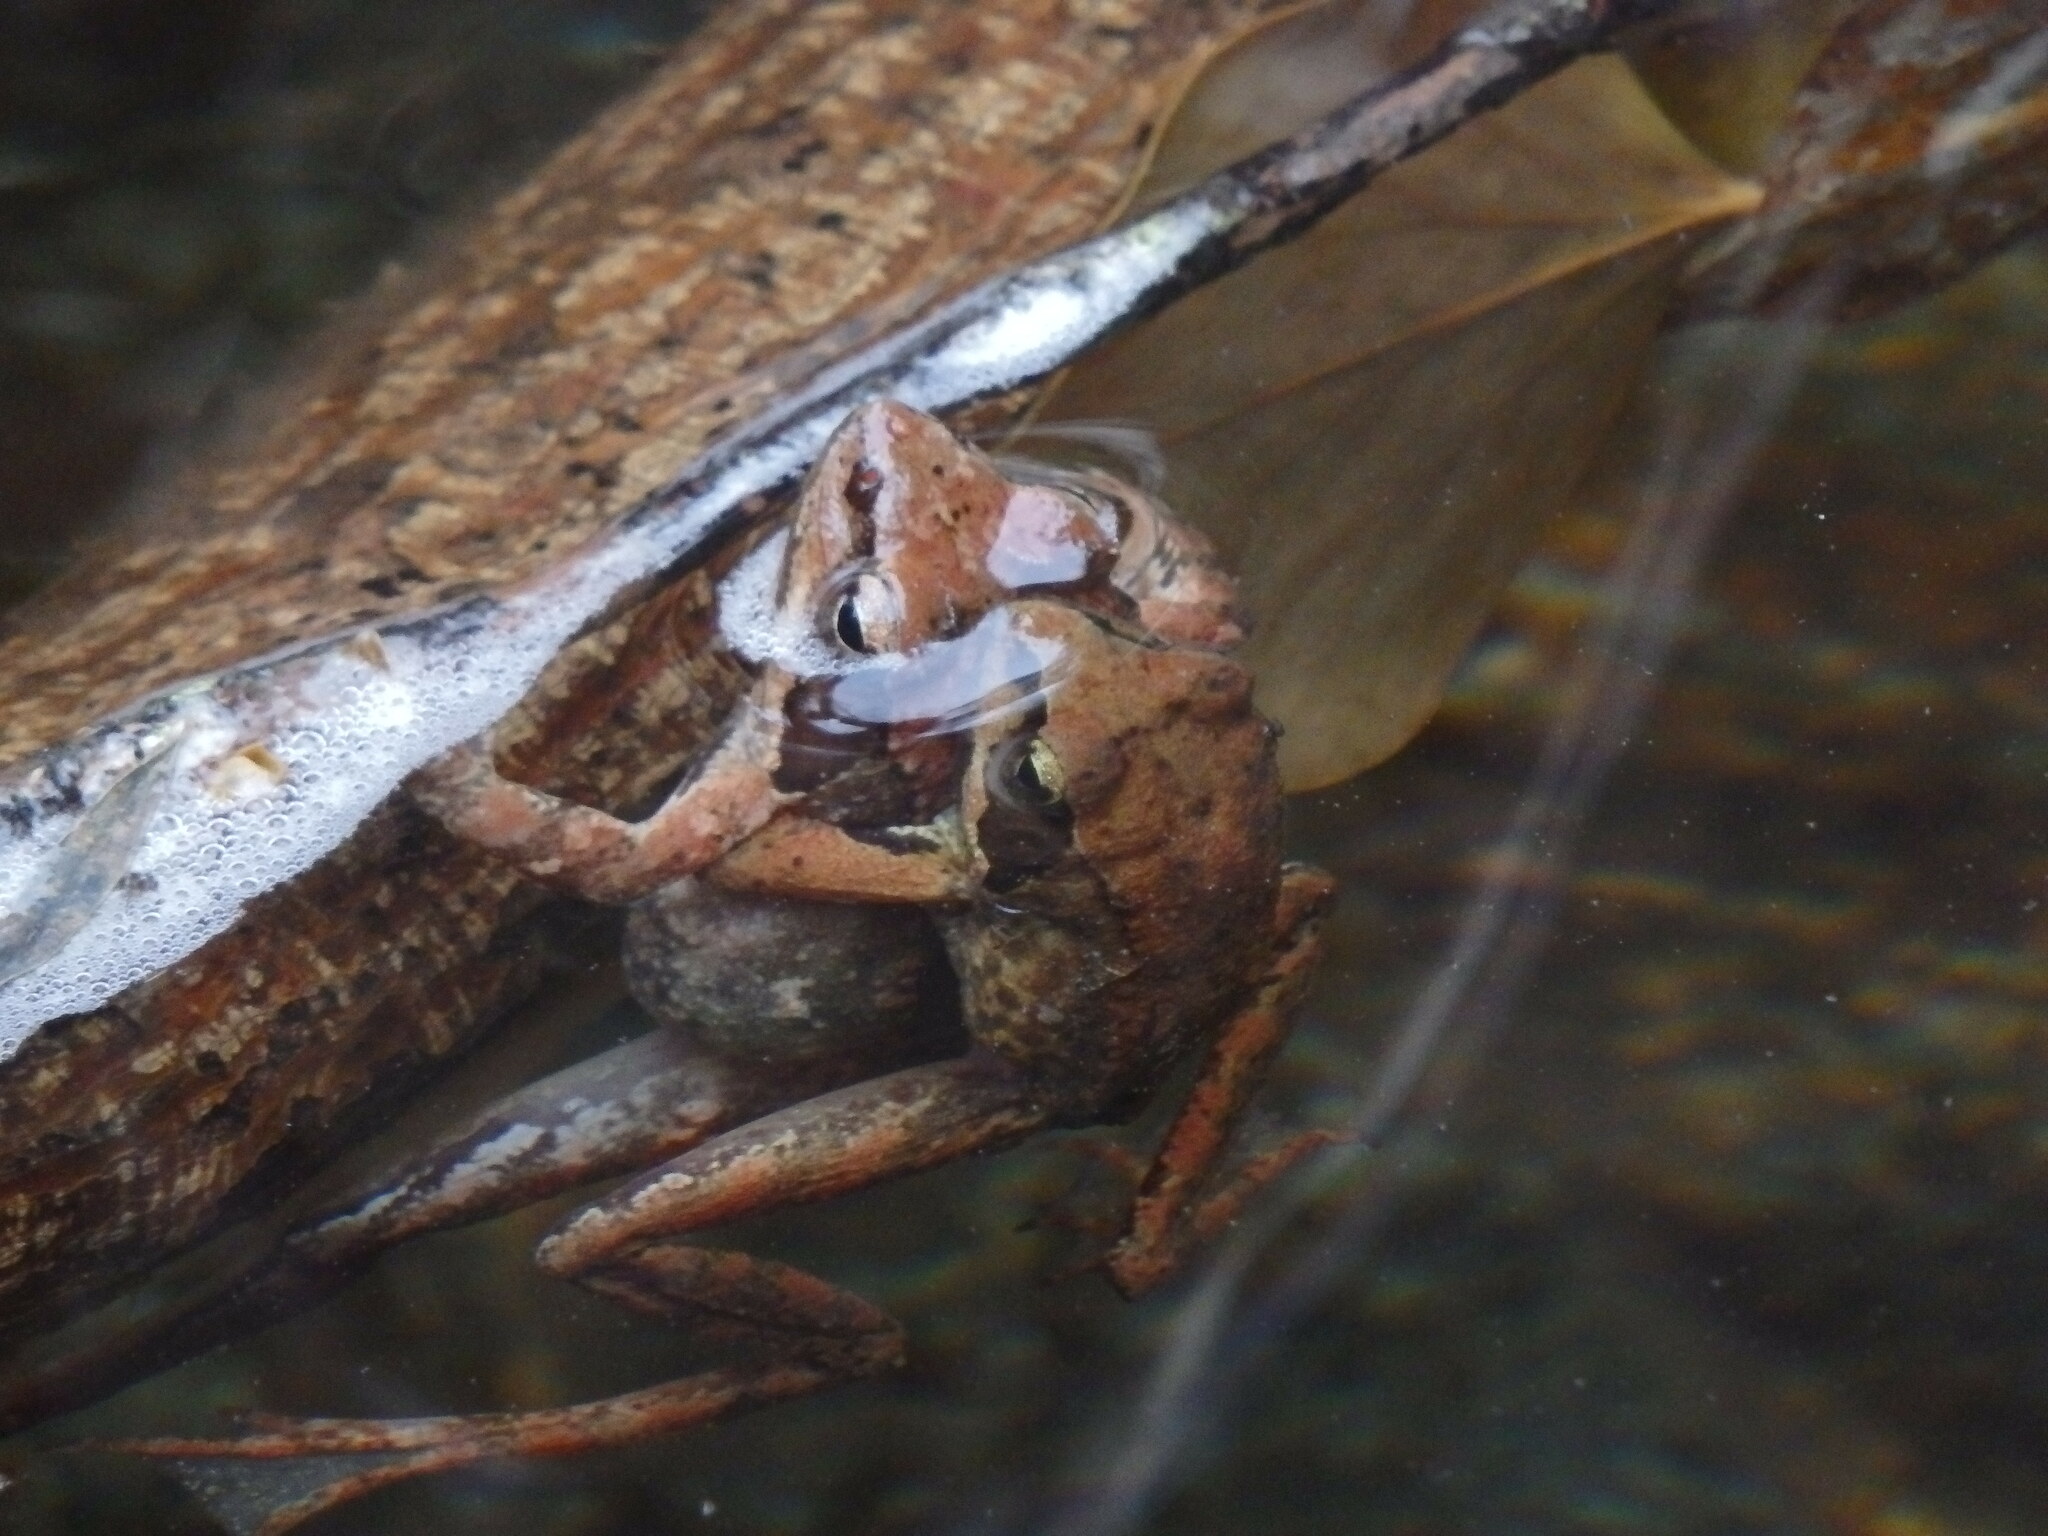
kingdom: Animalia
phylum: Chordata
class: Amphibia
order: Anura
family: Ranidae
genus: Rana
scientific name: Rana iberica
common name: Iberian frog
